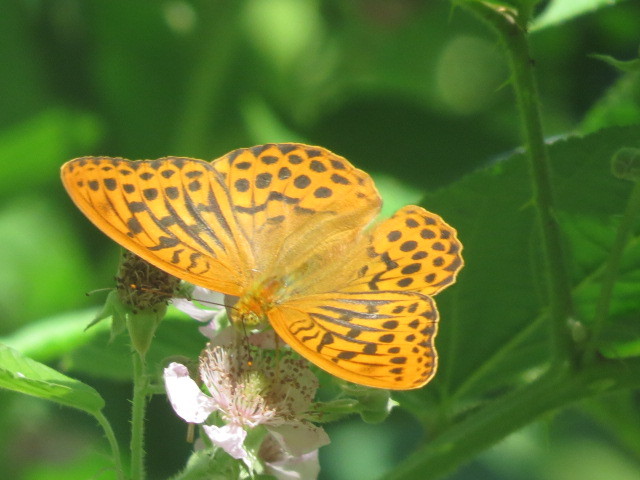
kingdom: Animalia
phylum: Arthropoda
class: Insecta
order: Lepidoptera
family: Nymphalidae
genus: Argynnis
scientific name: Argynnis paphia
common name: Silver-washed fritillary
